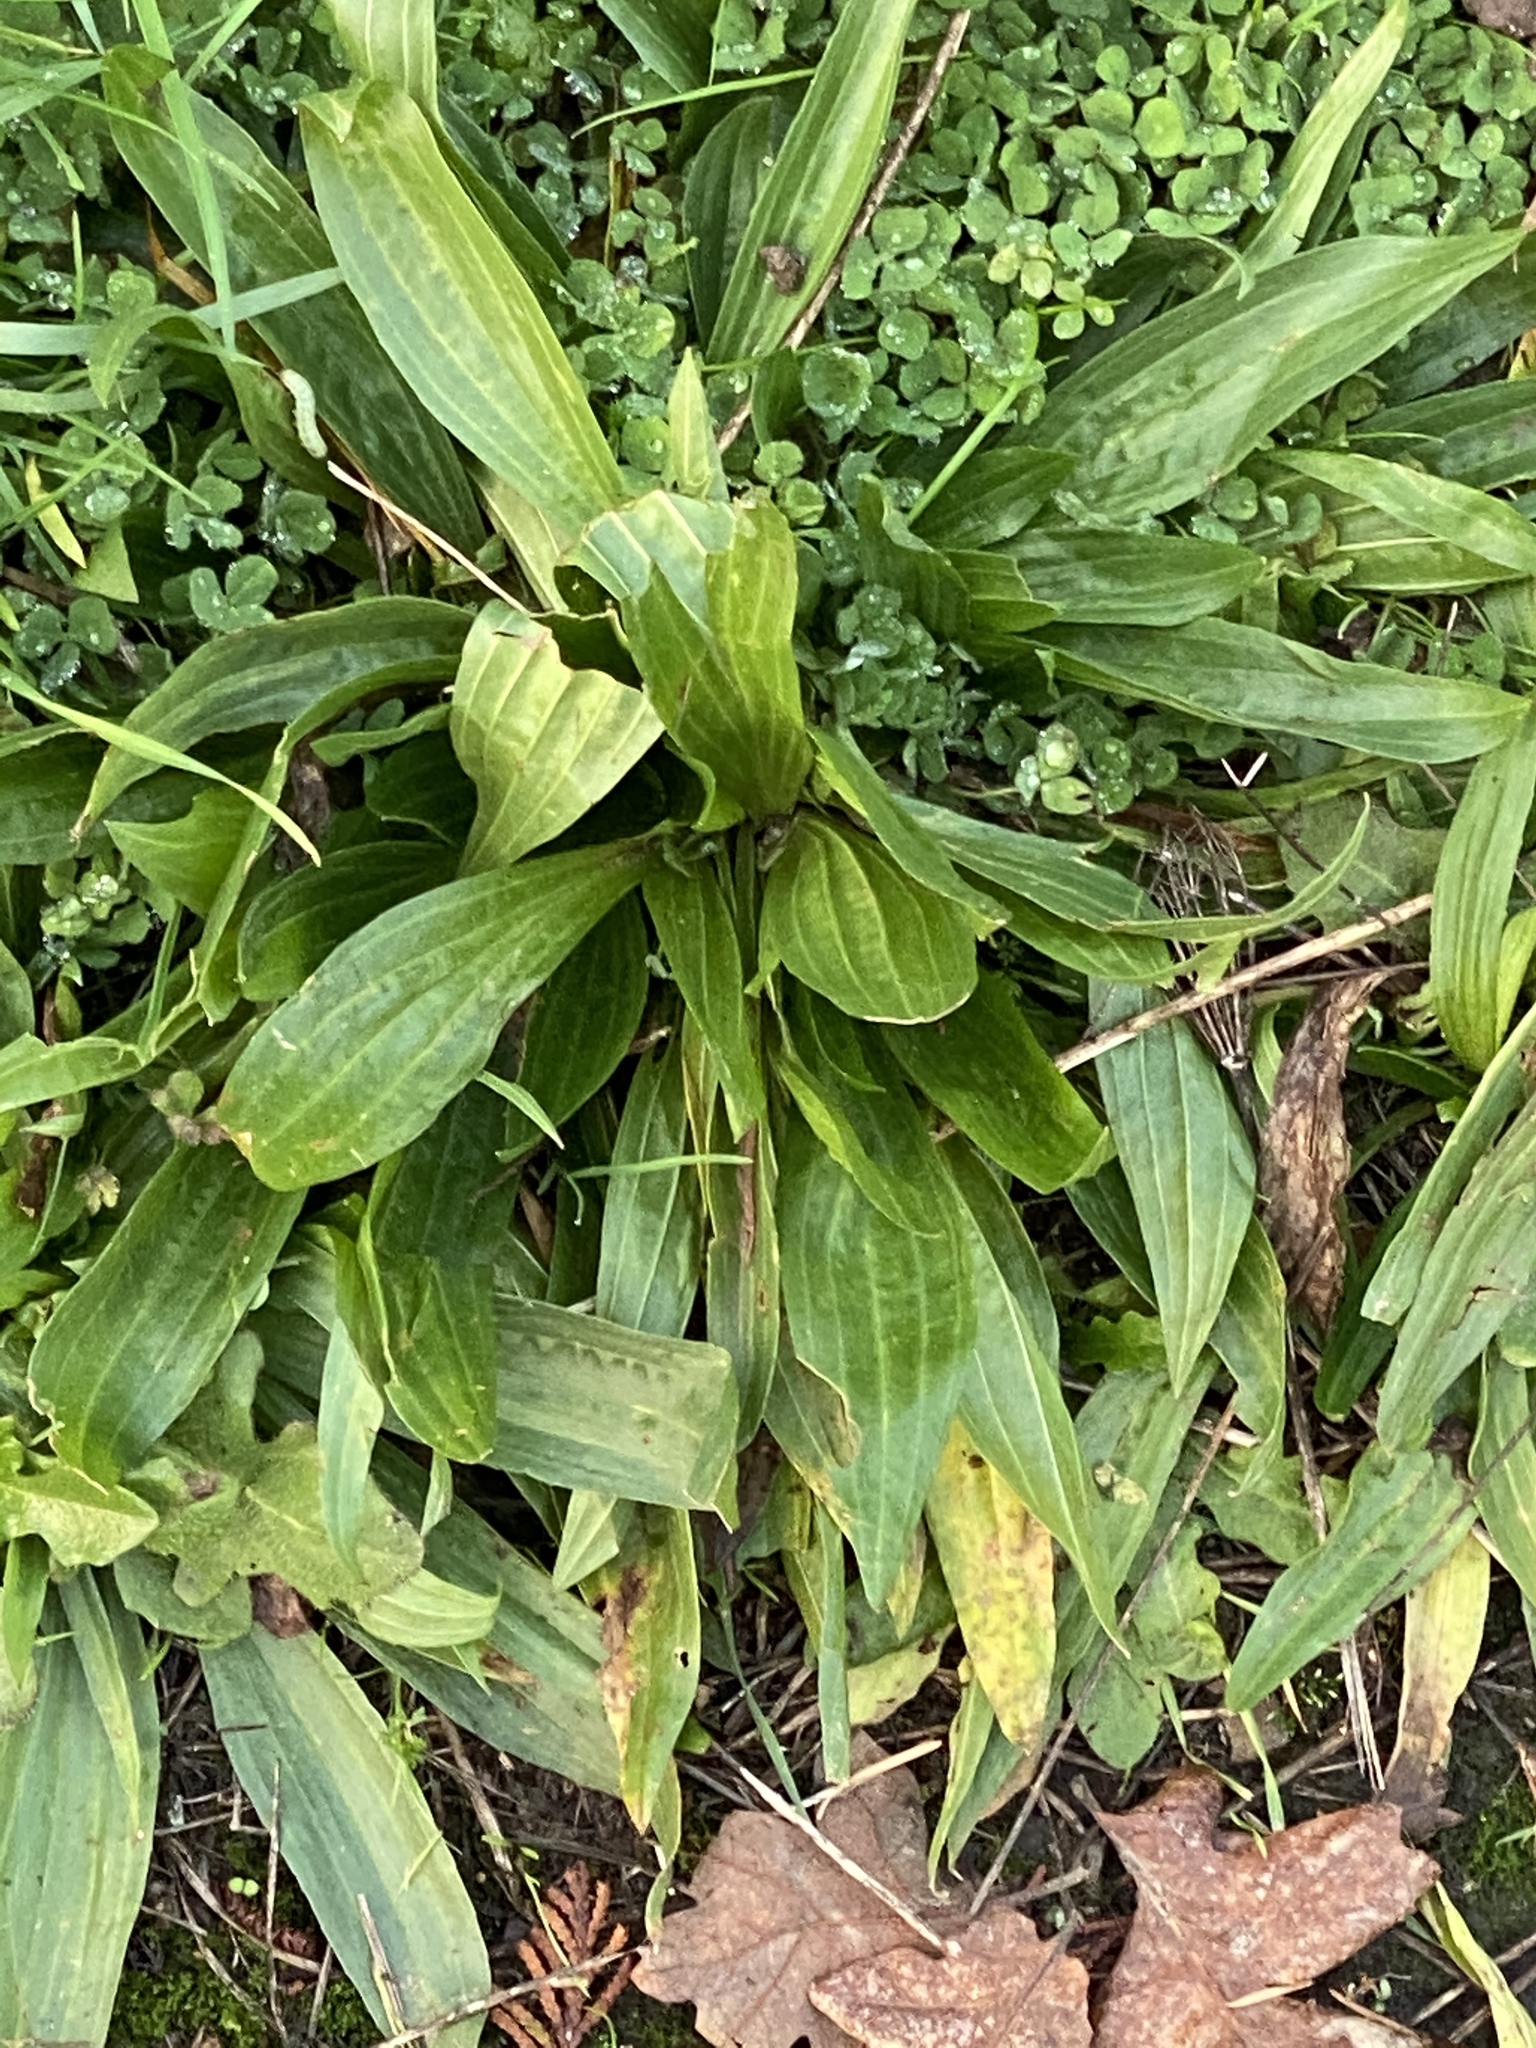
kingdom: Plantae
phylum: Tracheophyta
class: Magnoliopsida
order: Lamiales
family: Plantaginaceae
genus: Plantago
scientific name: Plantago lanceolata
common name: Ribwort plantain
